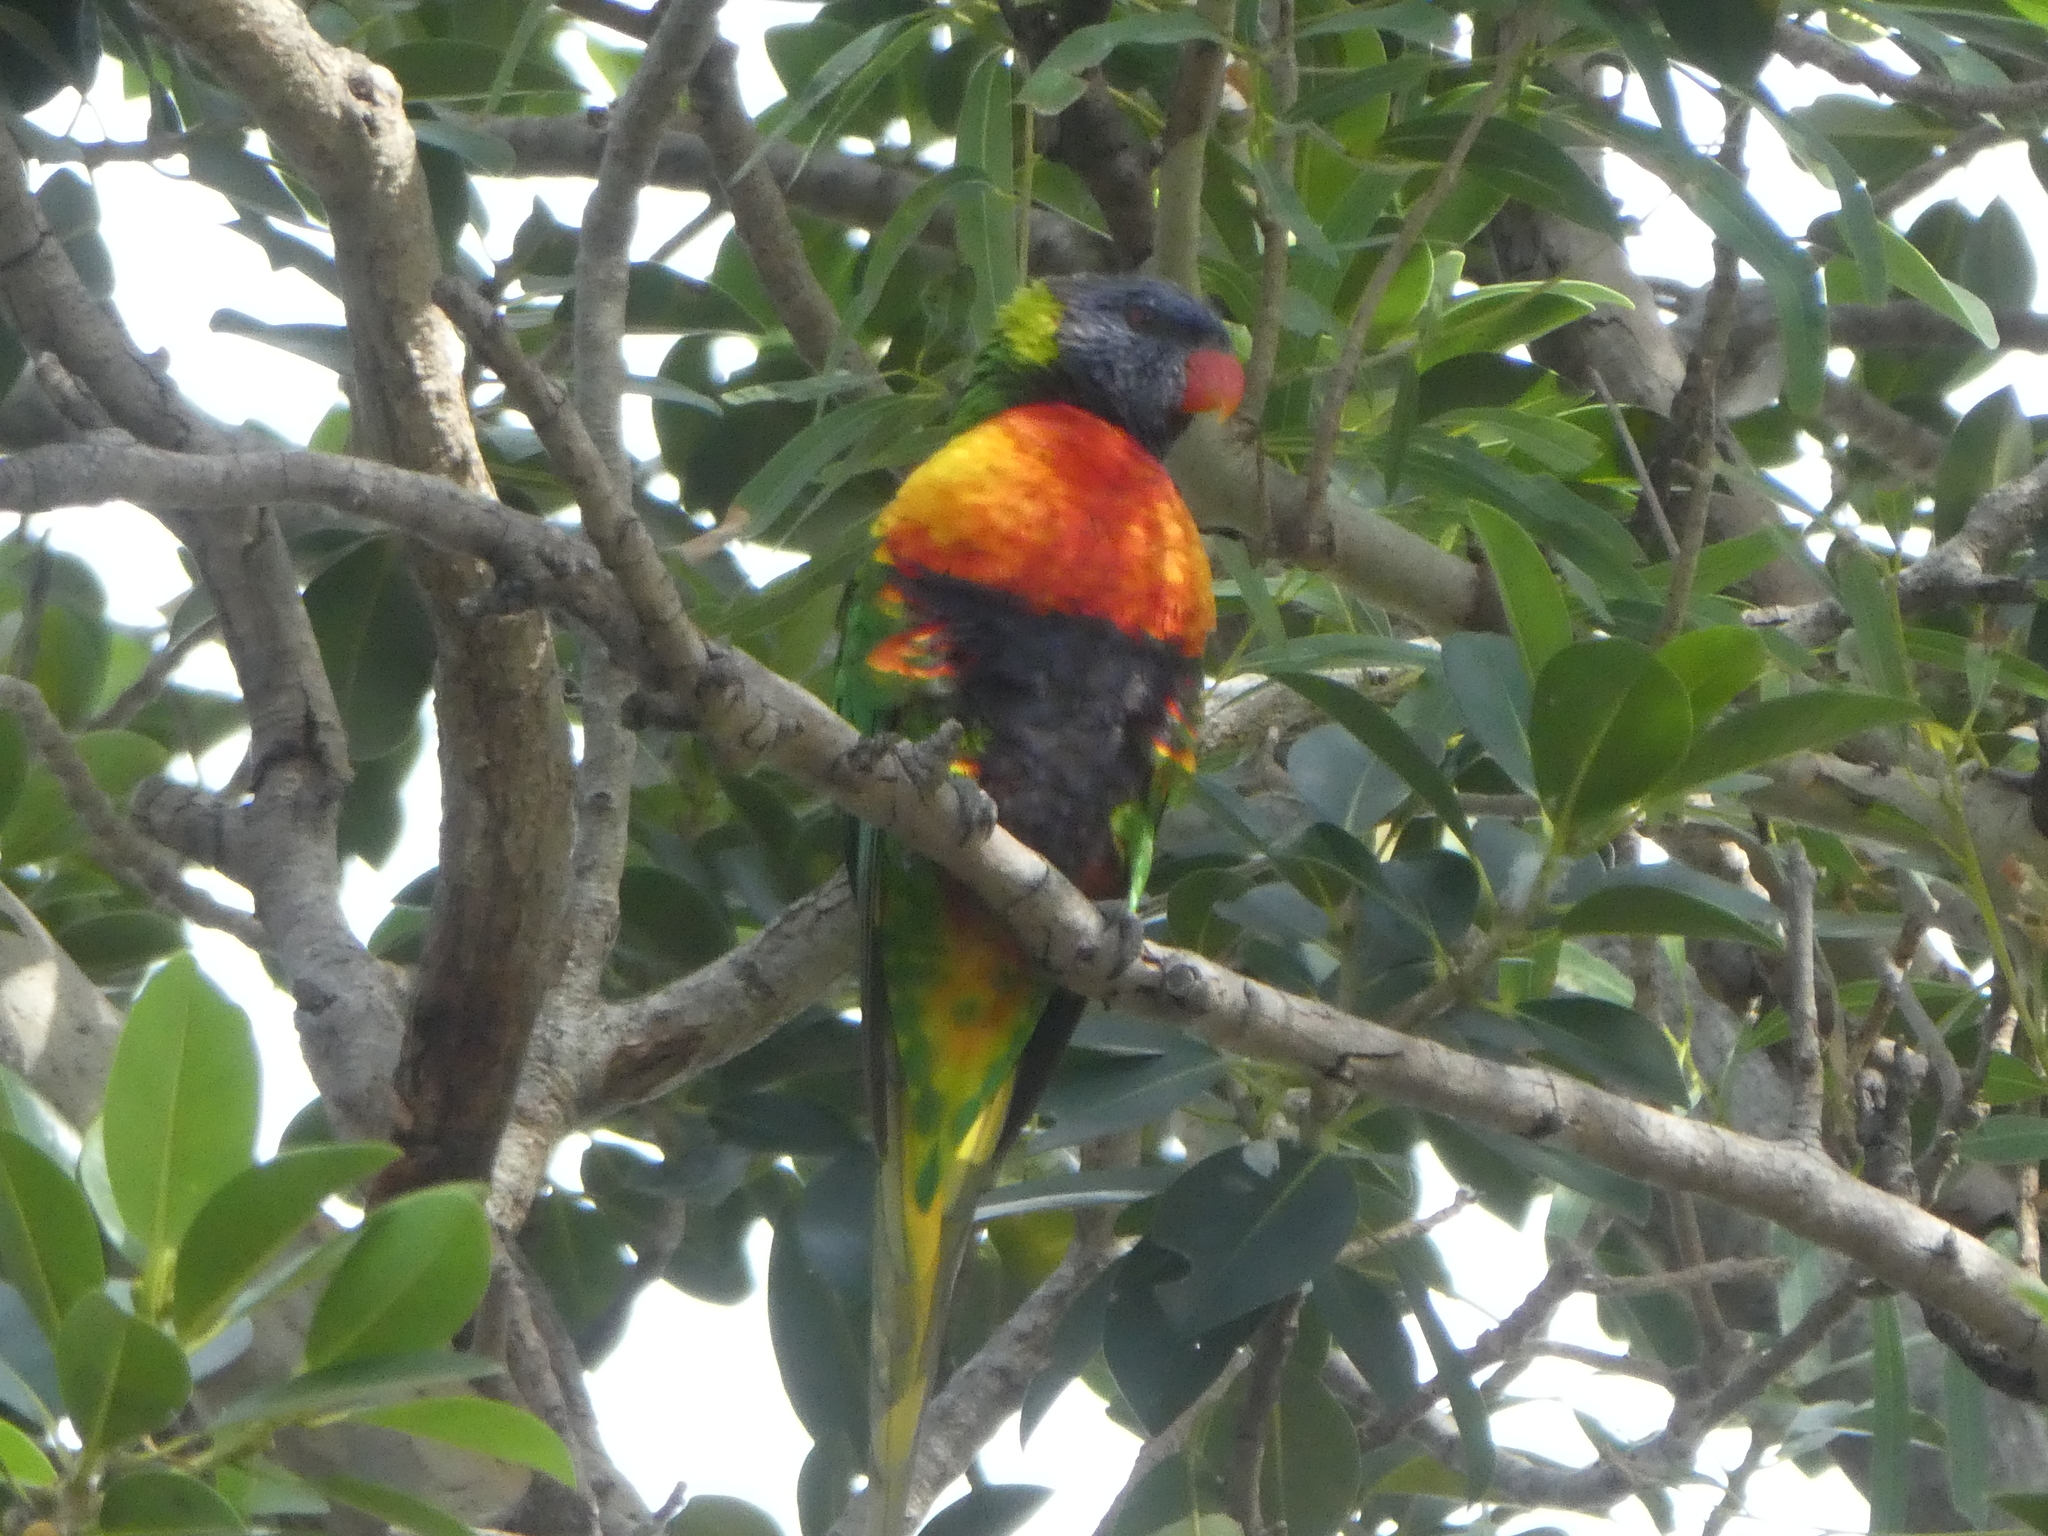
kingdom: Animalia
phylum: Chordata
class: Aves
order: Psittaciformes
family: Psittacidae
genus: Trichoglossus
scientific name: Trichoglossus haematodus
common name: Coconut lorikeet
